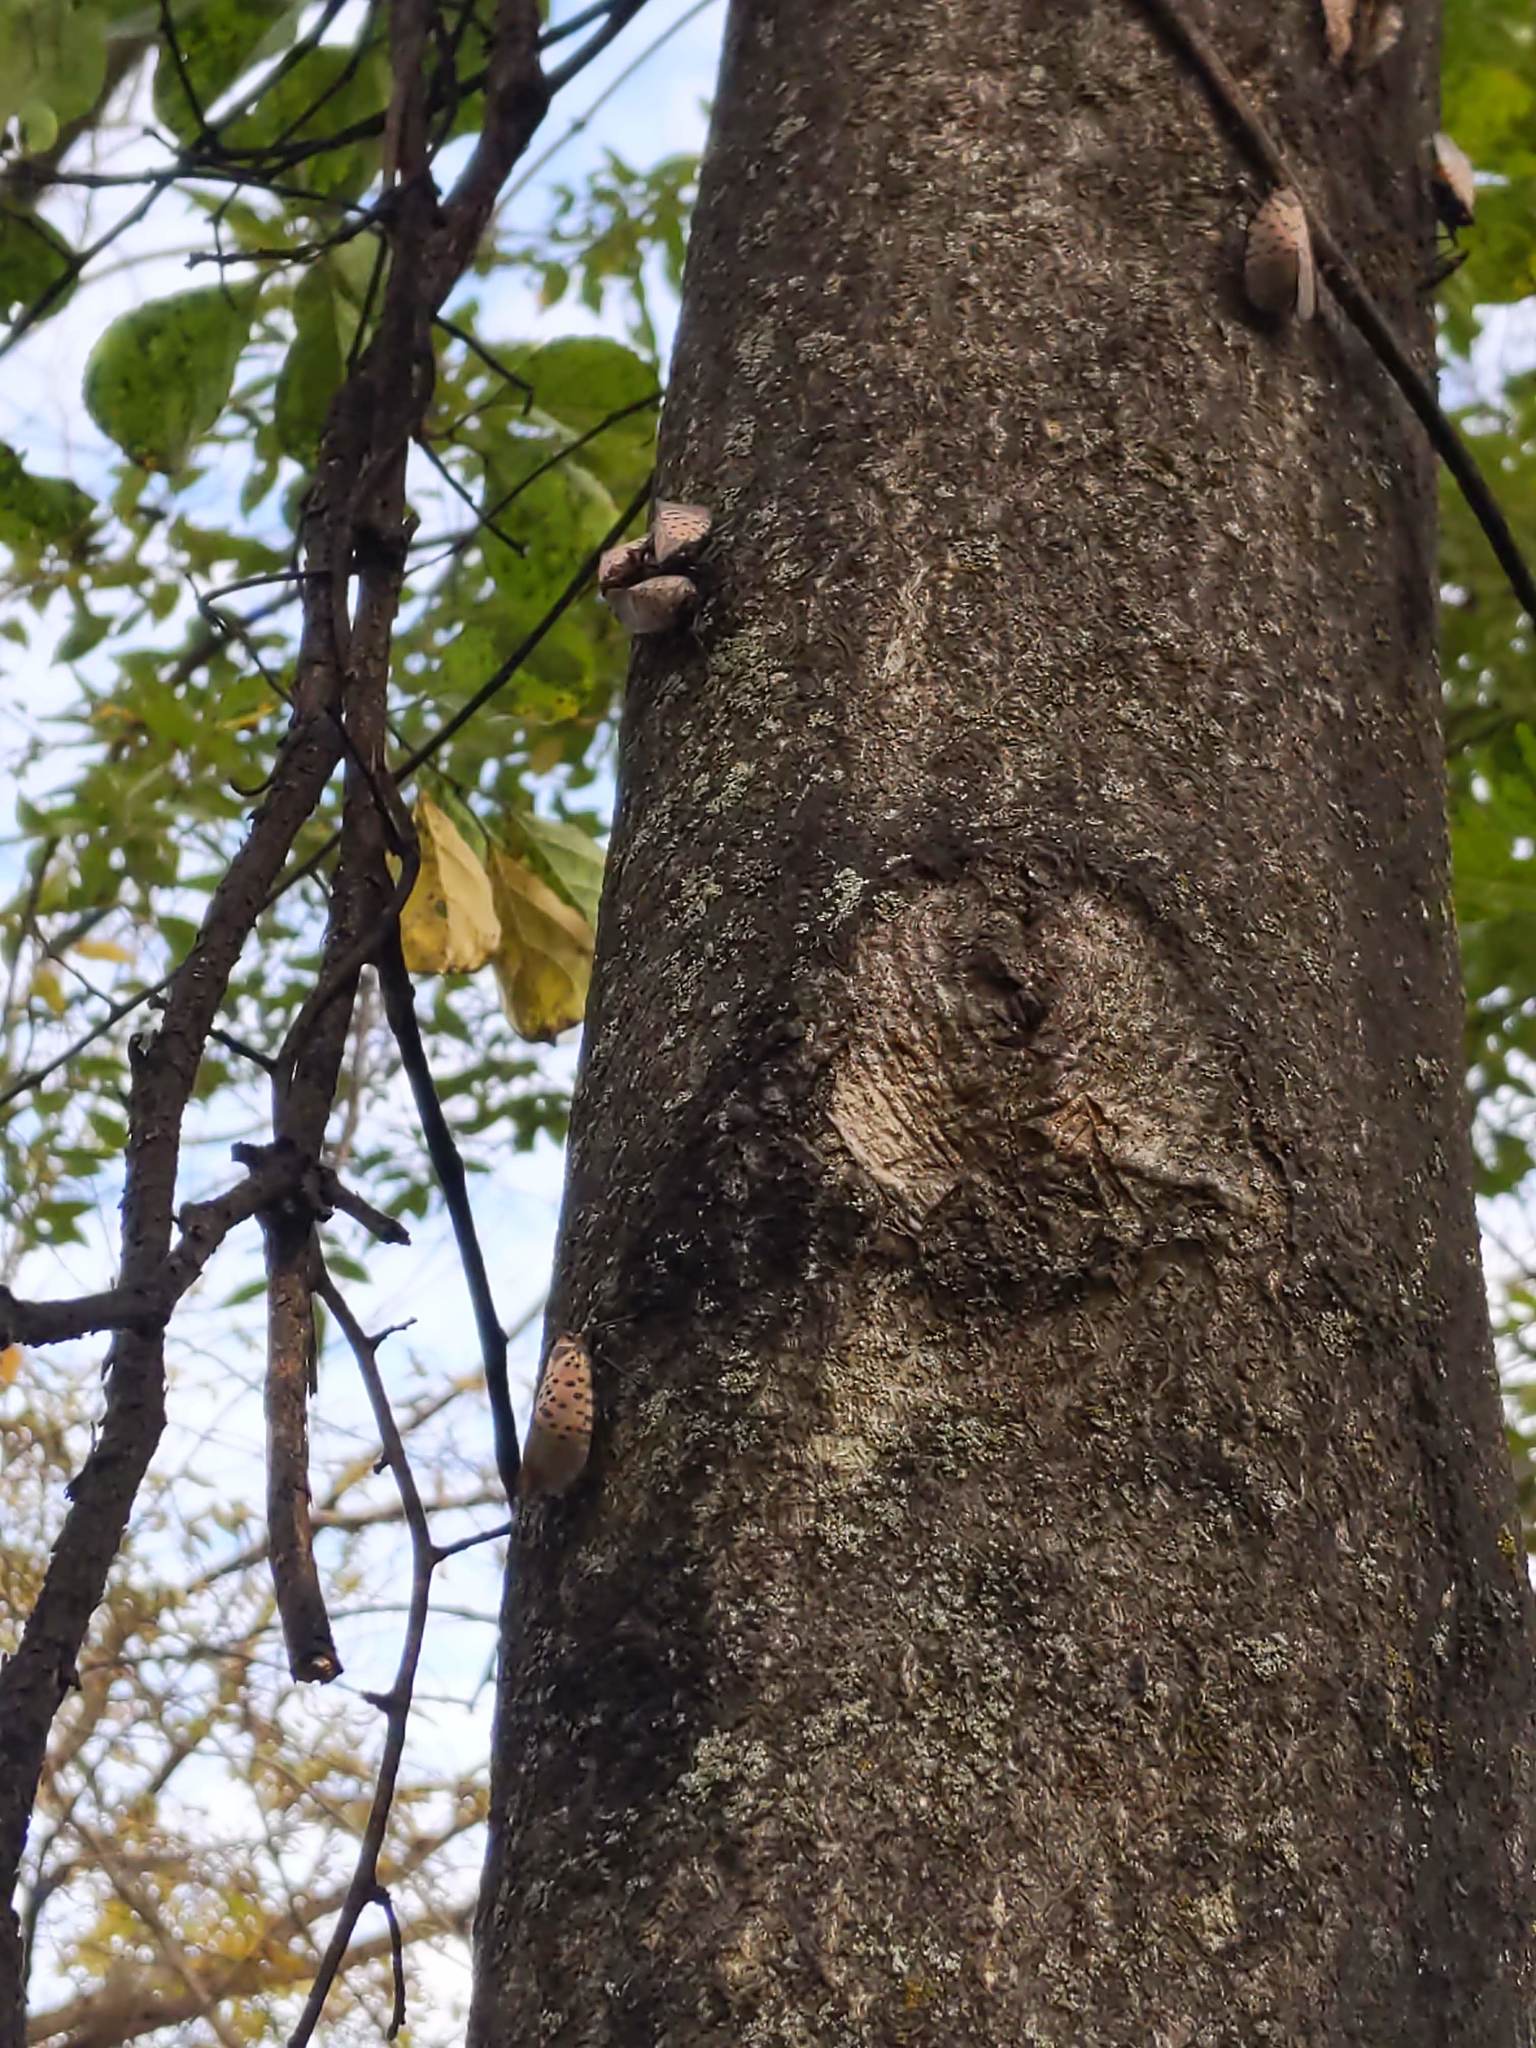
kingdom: Animalia
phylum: Arthropoda
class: Insecta
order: Hemiptera
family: Fulgoridae
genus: Lycorma
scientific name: Lycorma delicatula
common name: Spotted lanternfly
